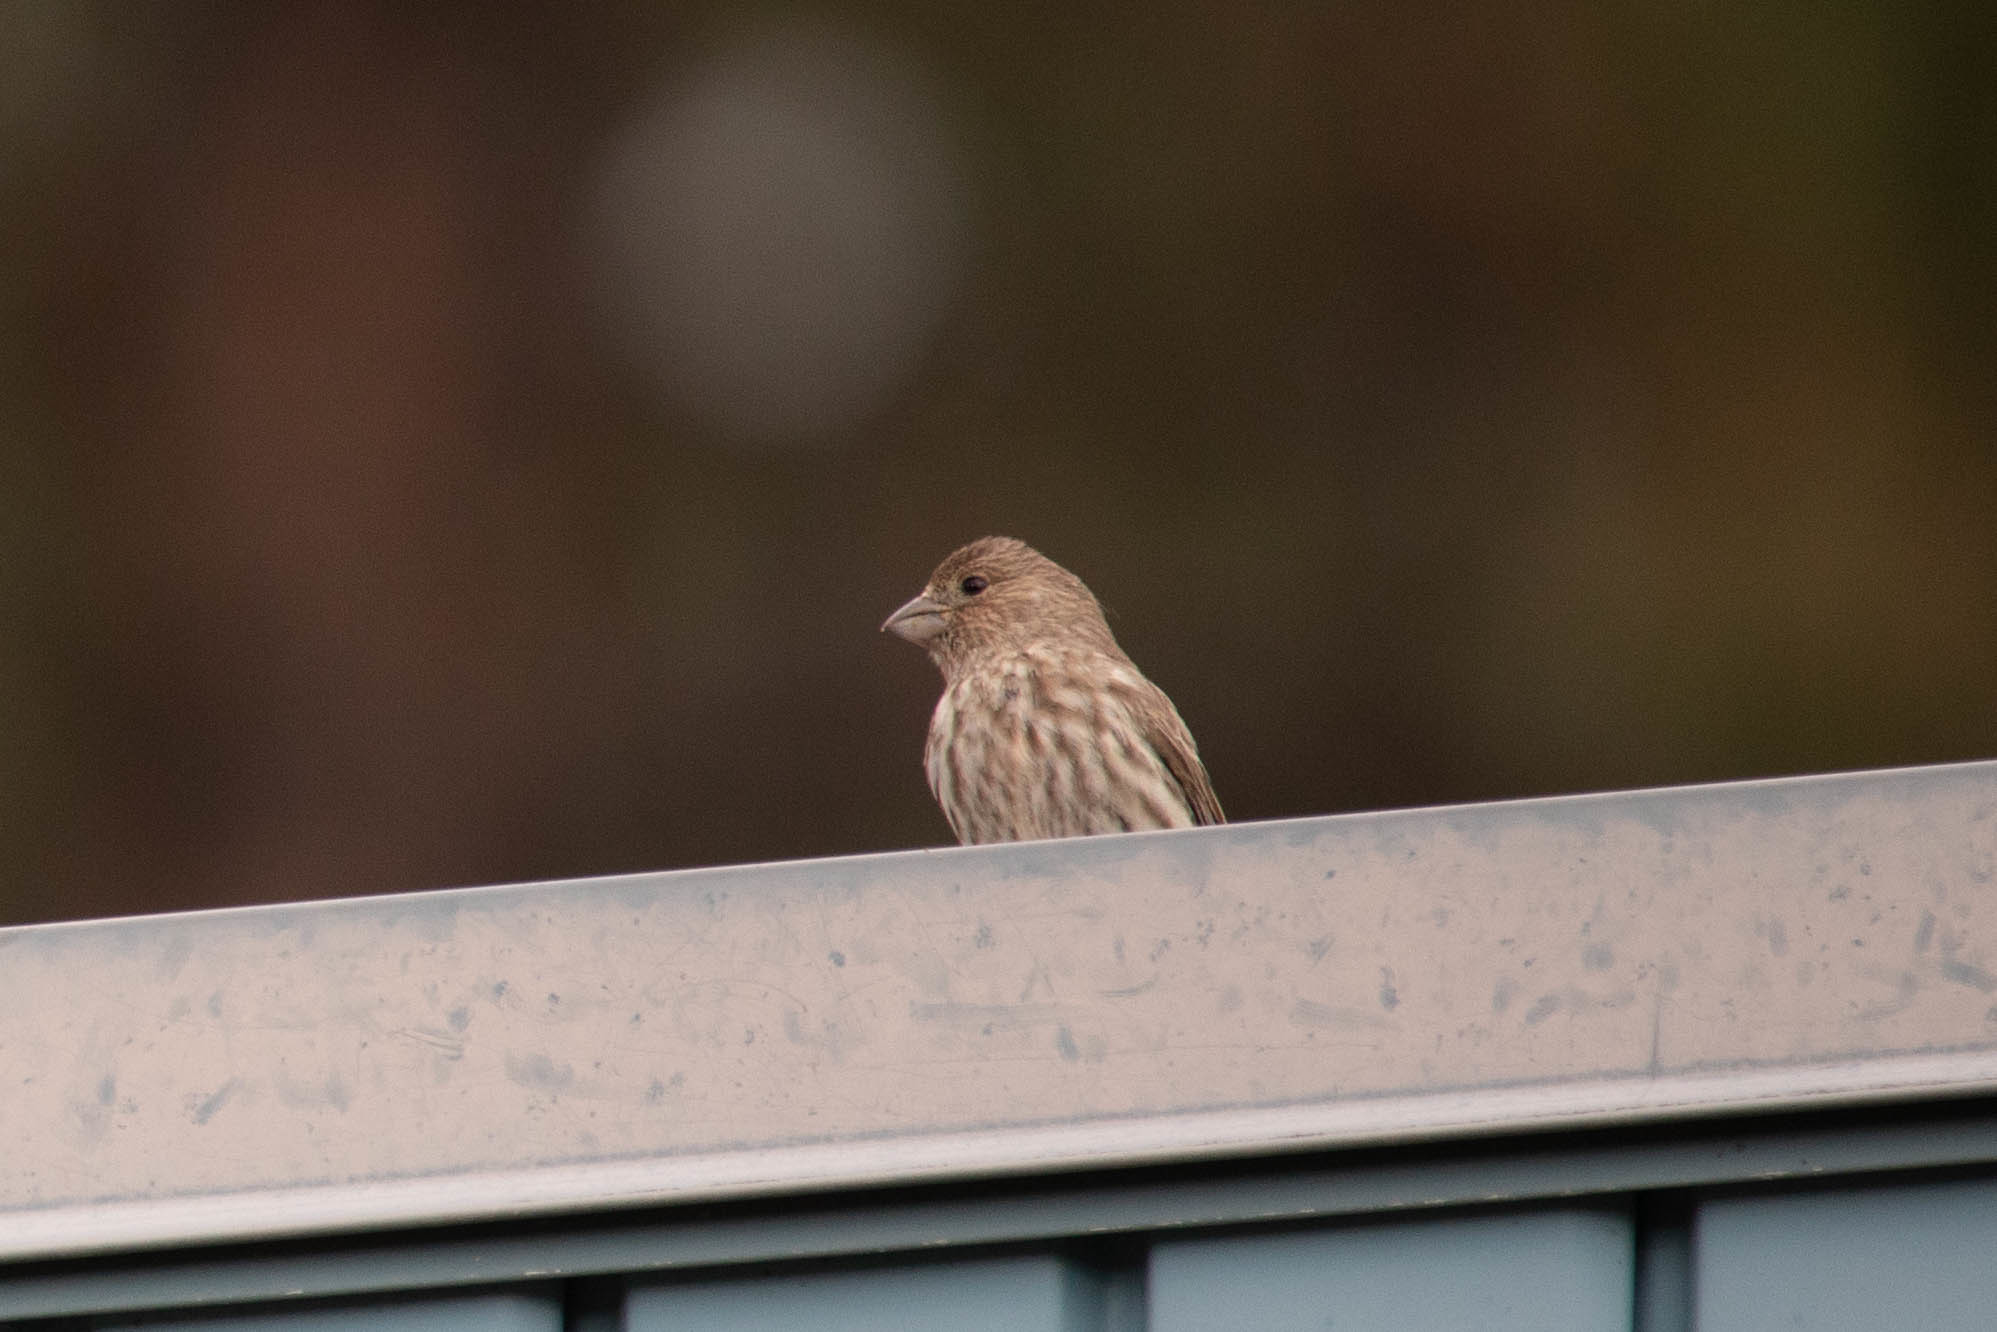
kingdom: Animalia
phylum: Chordata
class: Aves
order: Passeriformes
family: Fringillidae
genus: Haemorhous
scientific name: Haemorhous mexicanus
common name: House finch
